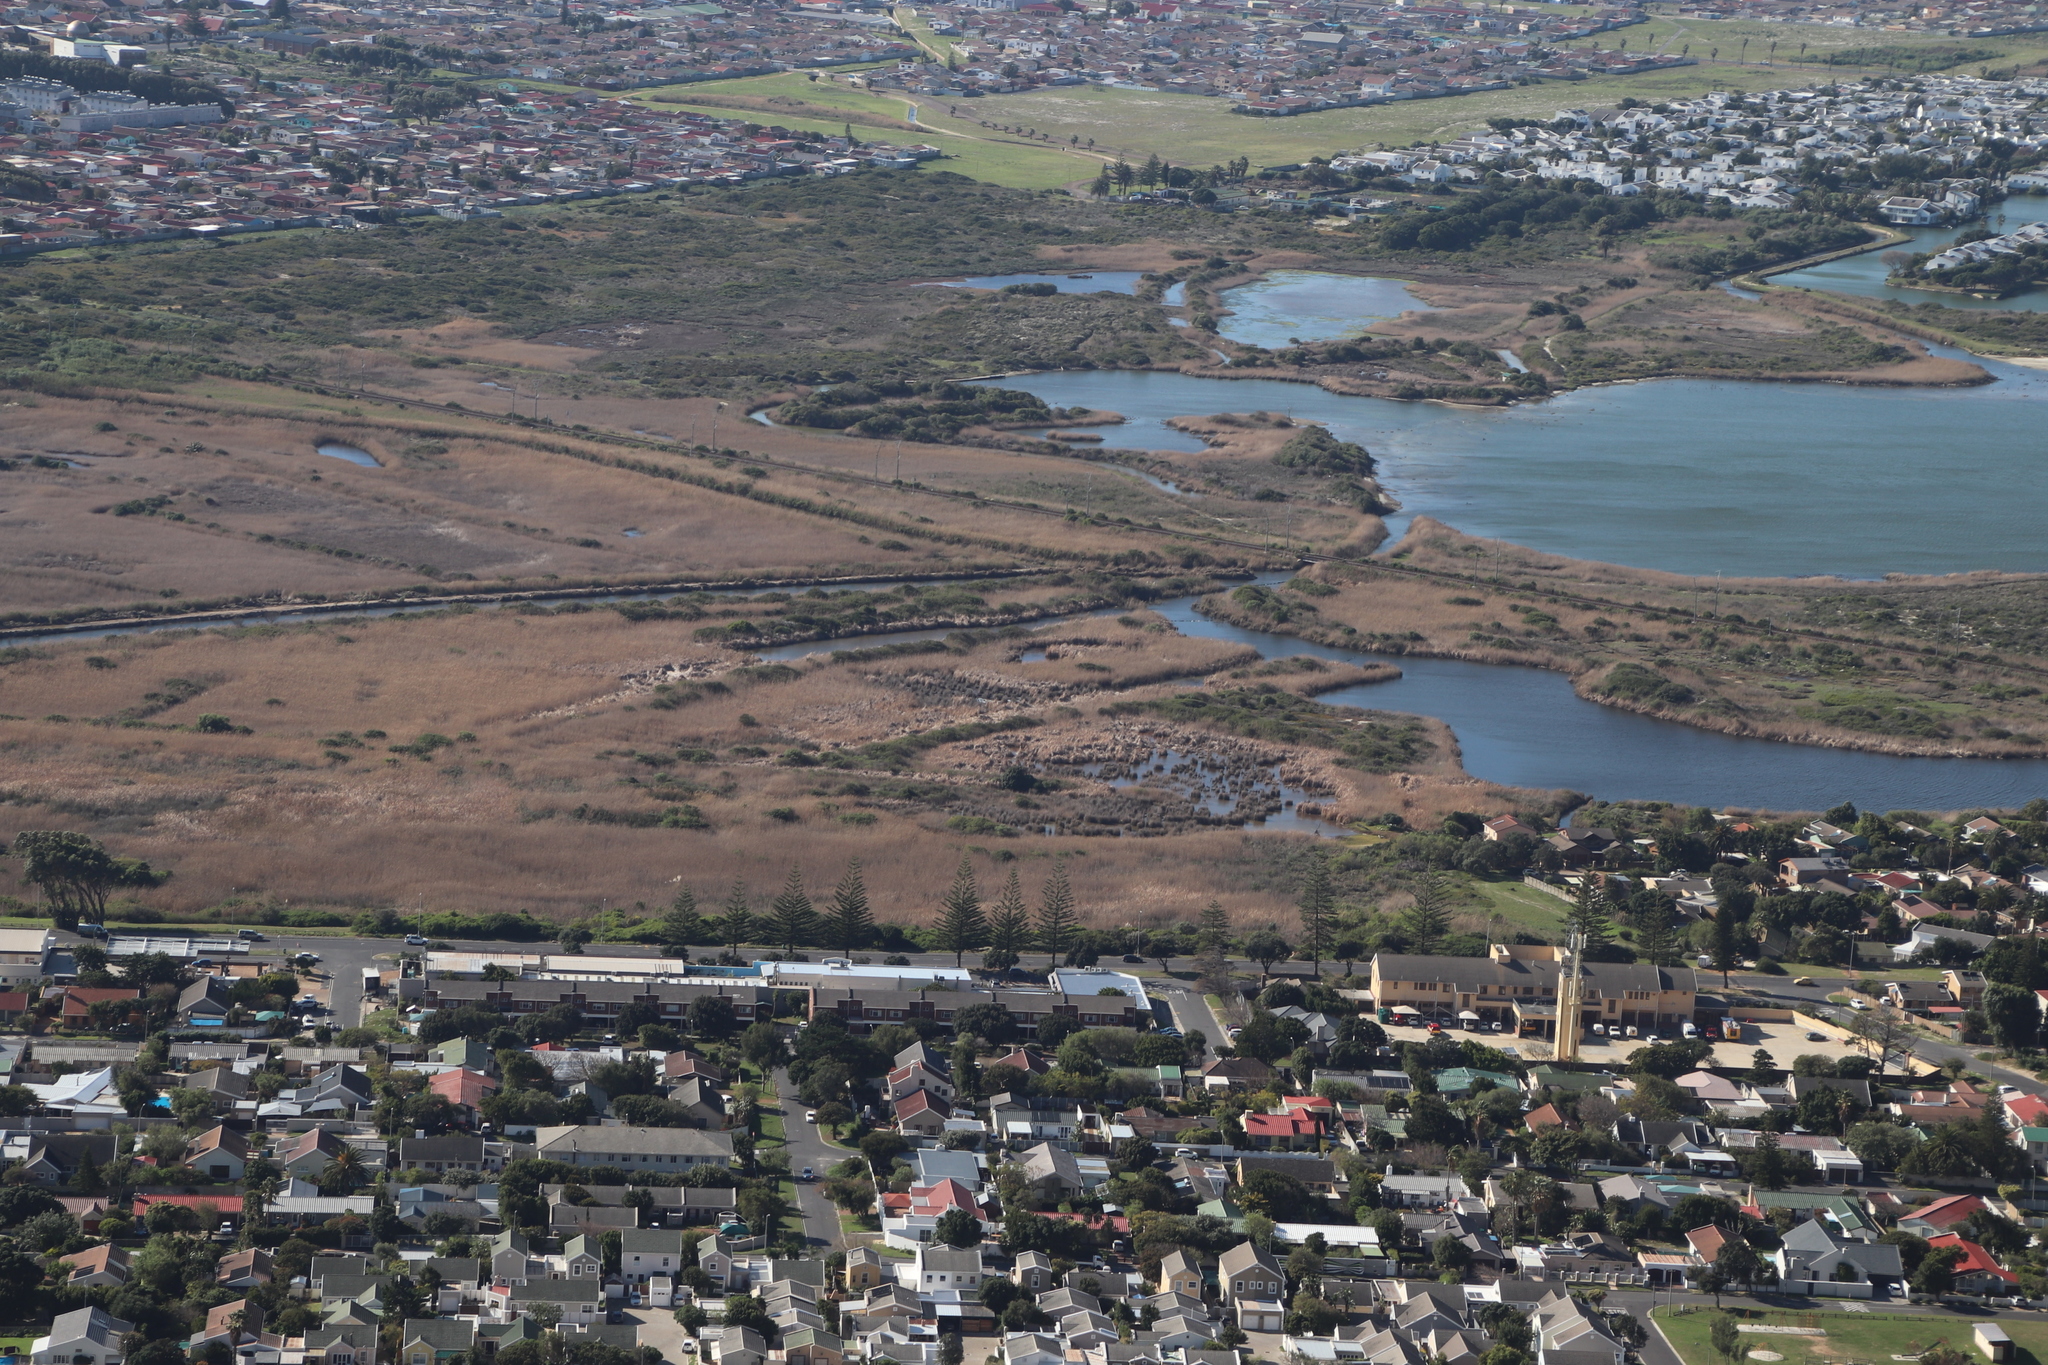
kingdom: Plantae
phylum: Tracheophyta
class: Liliopsida
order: Poales
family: Poaceae
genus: Phragmites
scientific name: Phragmites australis
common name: Common reed
